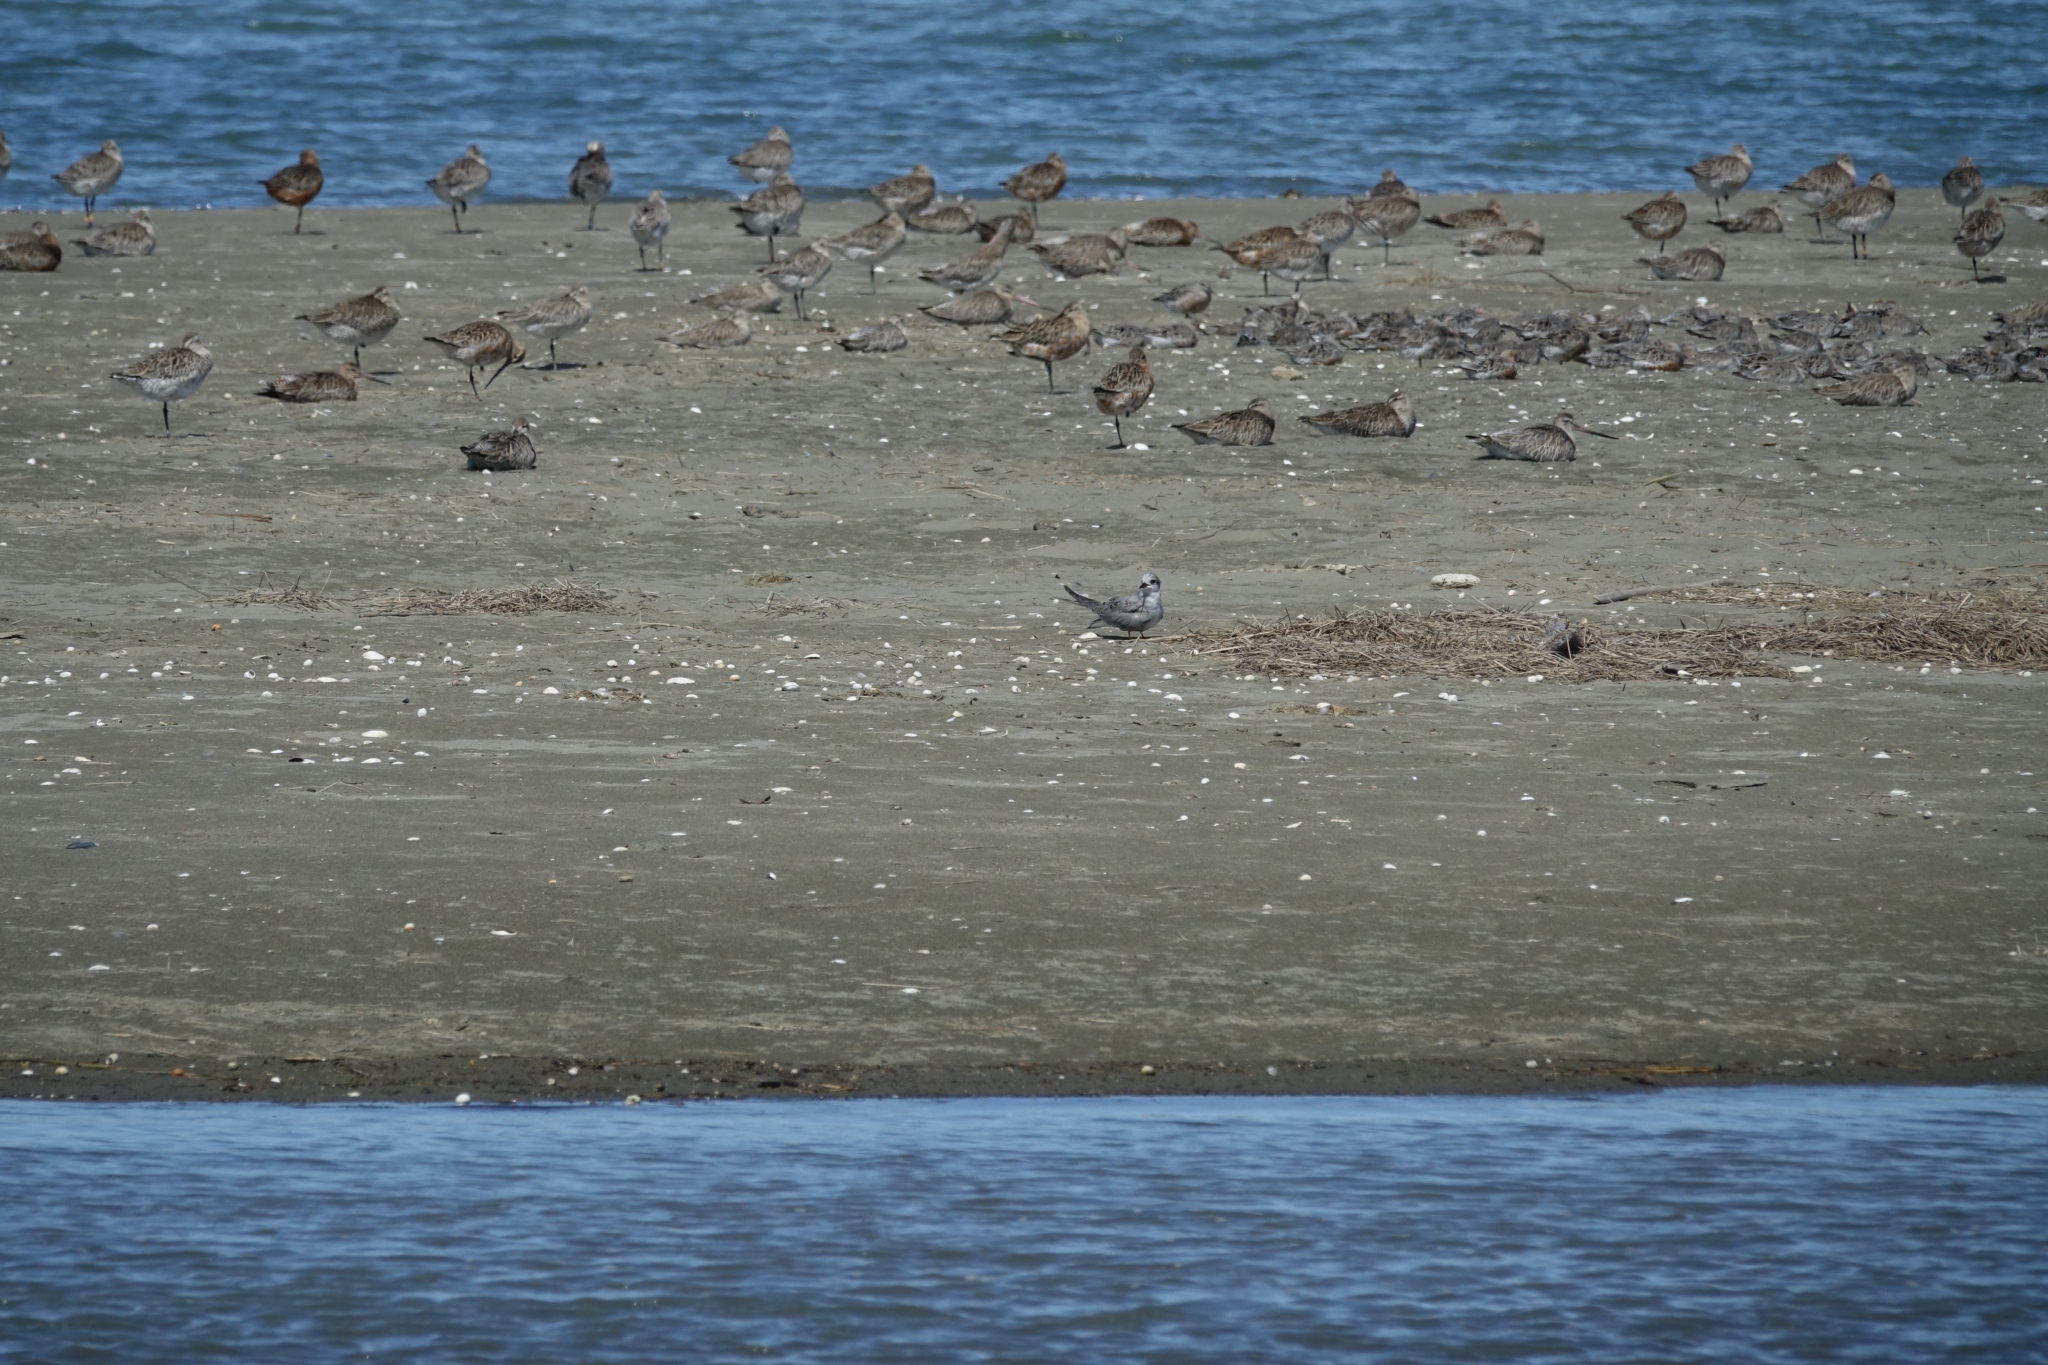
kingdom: Animalia
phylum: Chordata
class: Aves
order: Charadriiformes
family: Laridae
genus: Chlidonias
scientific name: Chlidonias albostriatus
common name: Black-fronted tern
